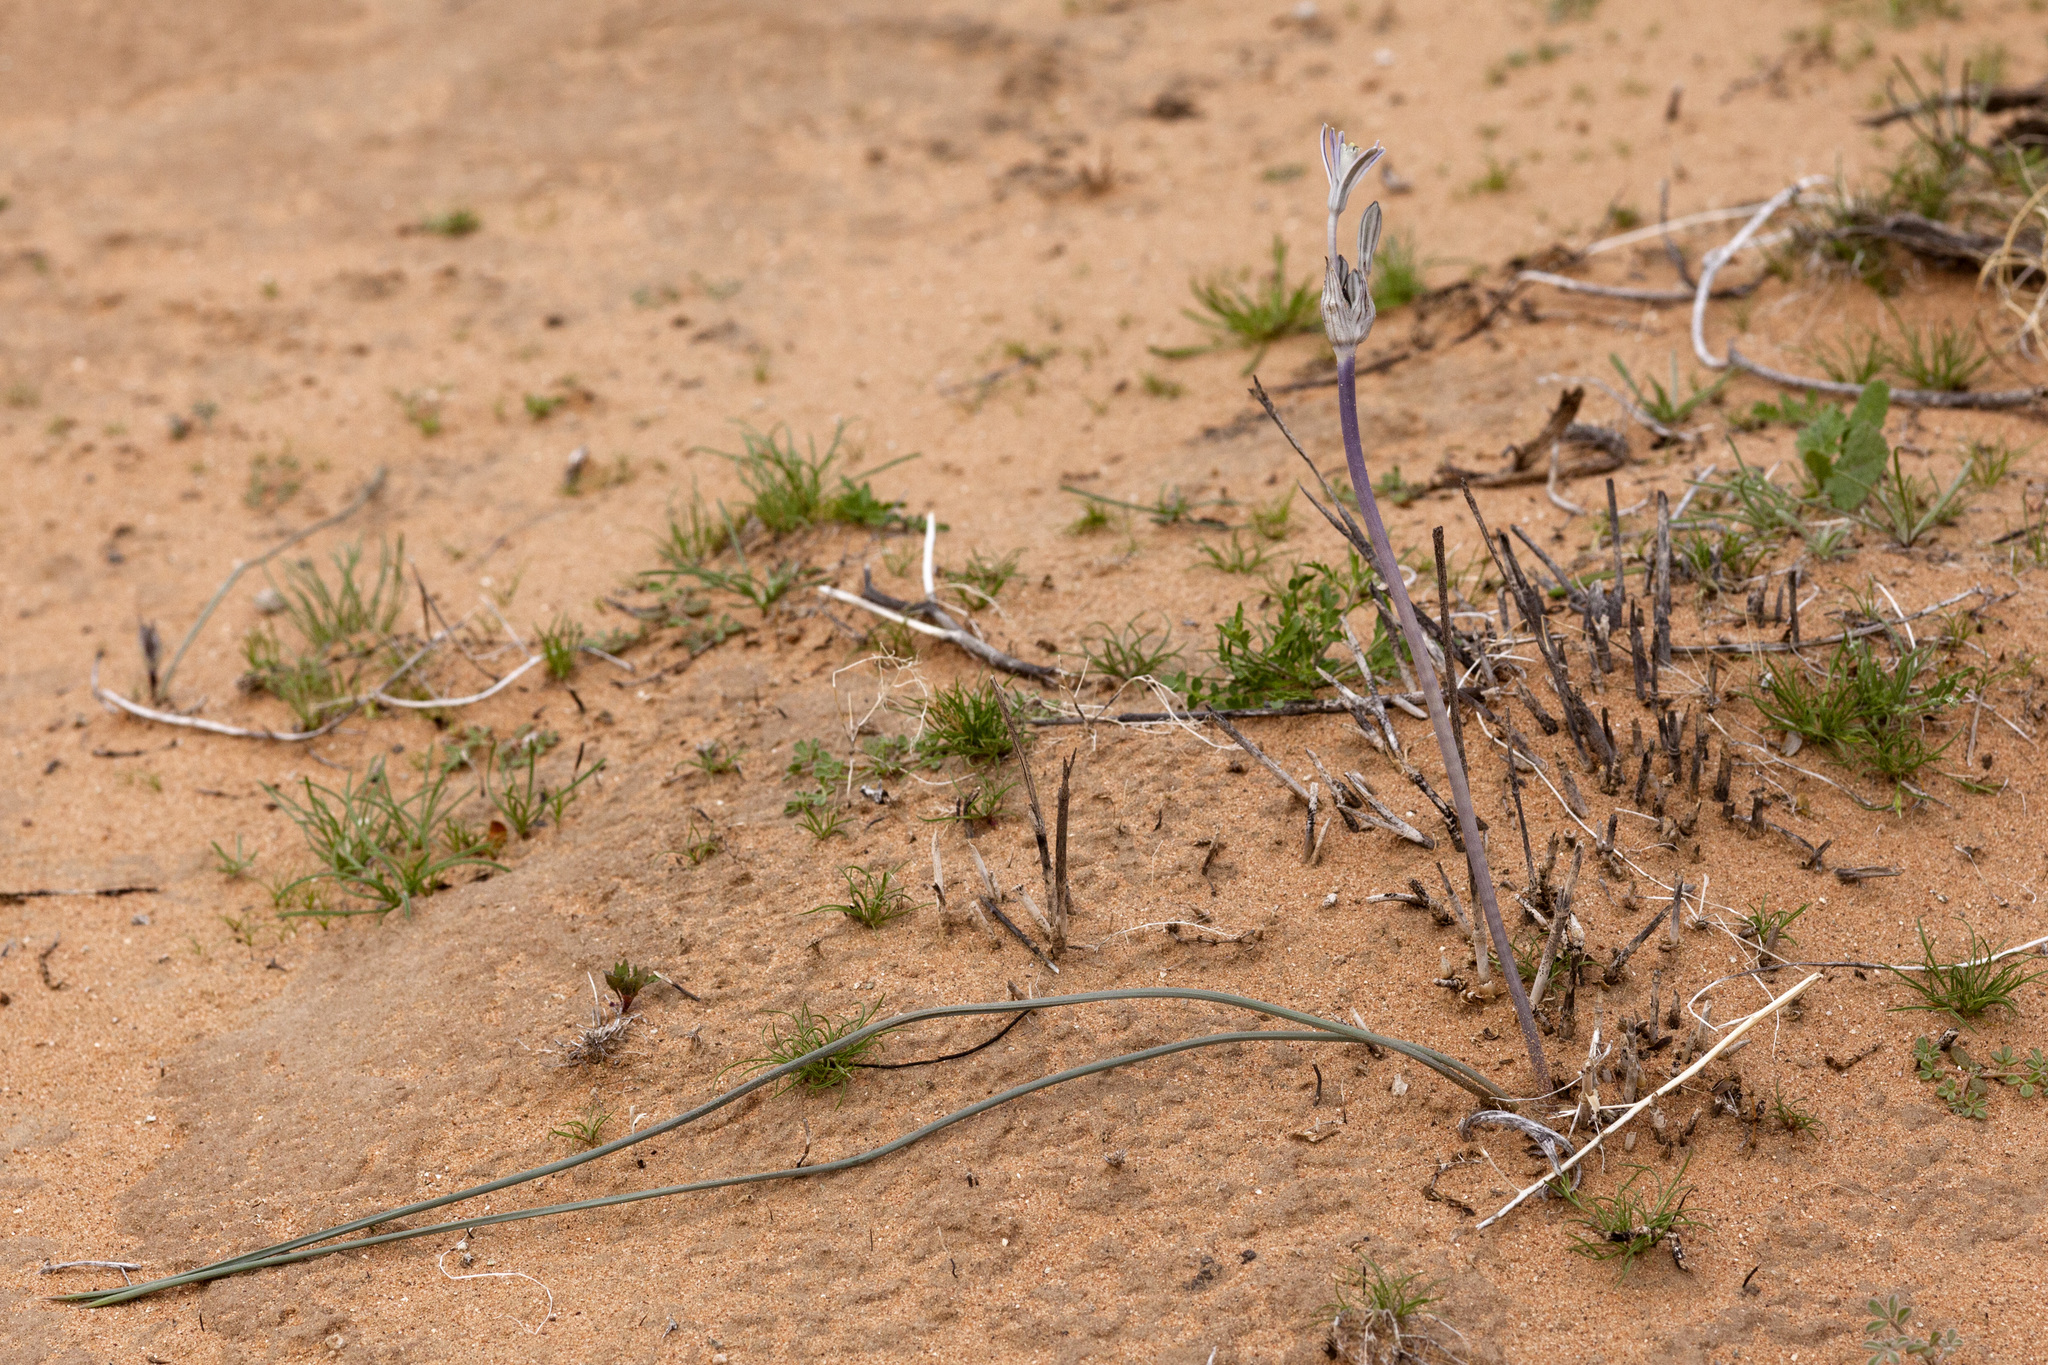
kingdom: Plantae
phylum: Tracheophyta
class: Liliopsida
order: Asparagales
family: Asparagaceae
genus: Androstephium
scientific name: Androstephium breviflorum
